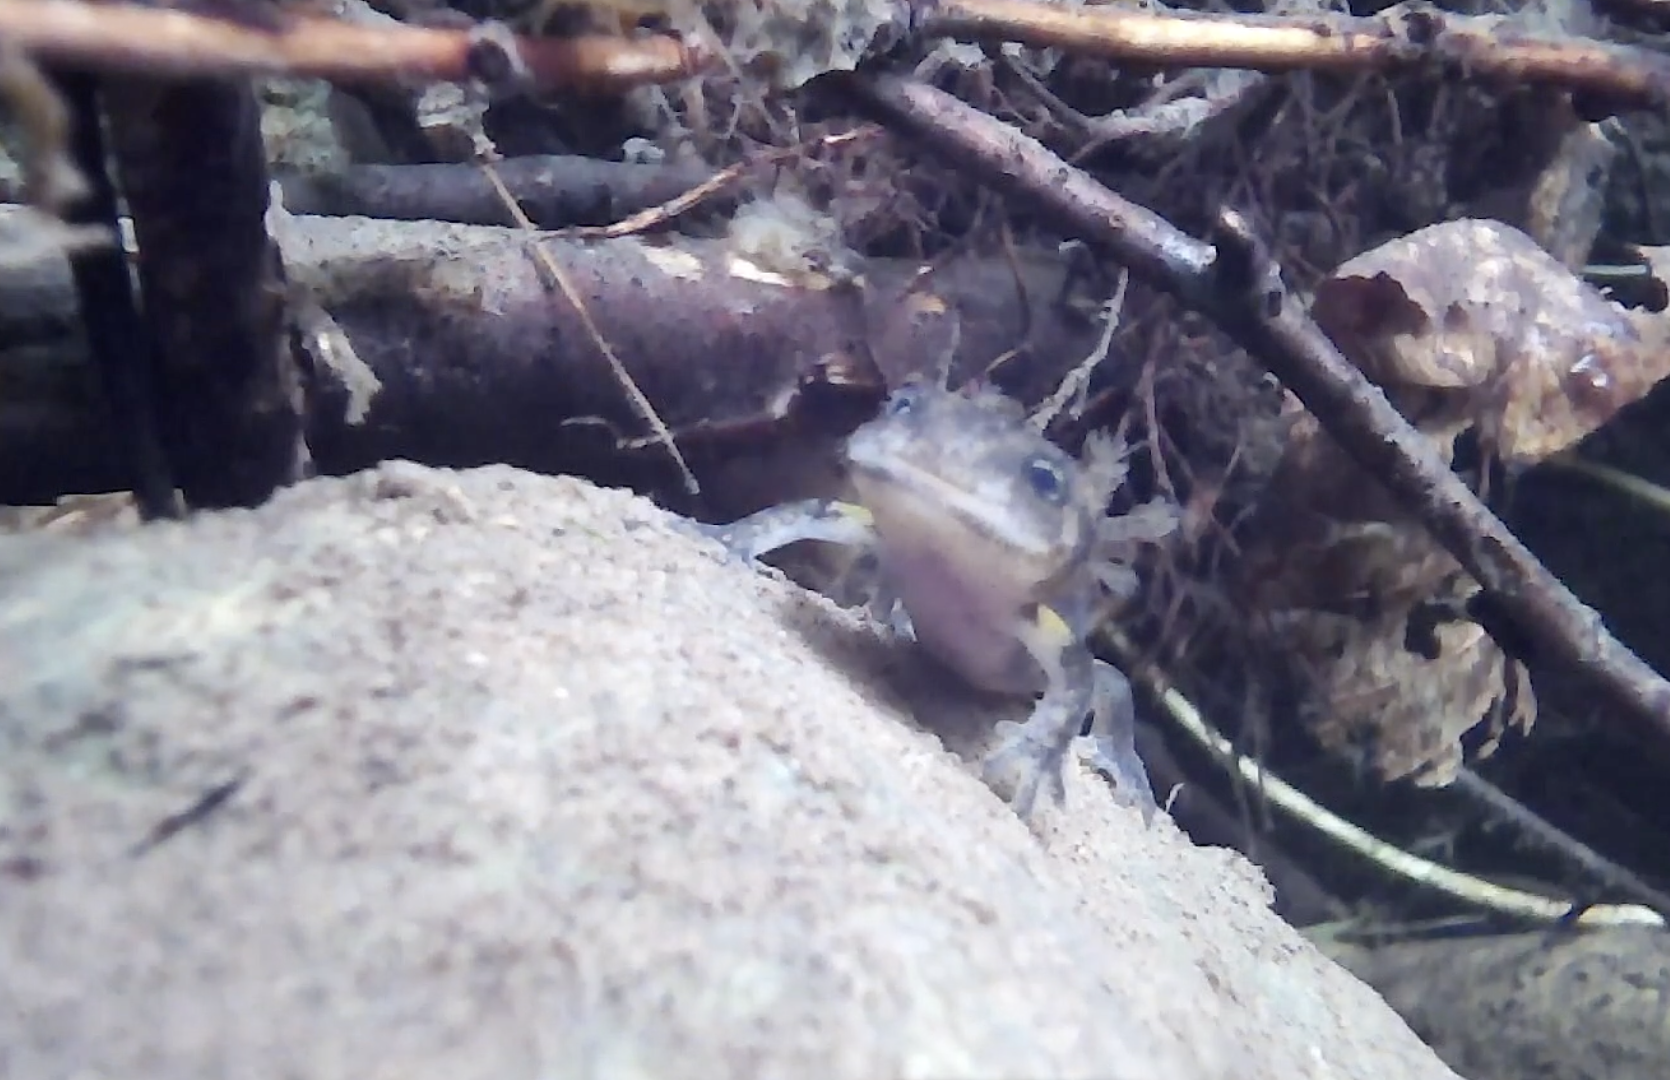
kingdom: Animalia
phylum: Chordata
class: Amphibia
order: Caudata
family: Salamandridae
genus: Salamandra
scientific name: Salamandra salamandra
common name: Fire salamander
